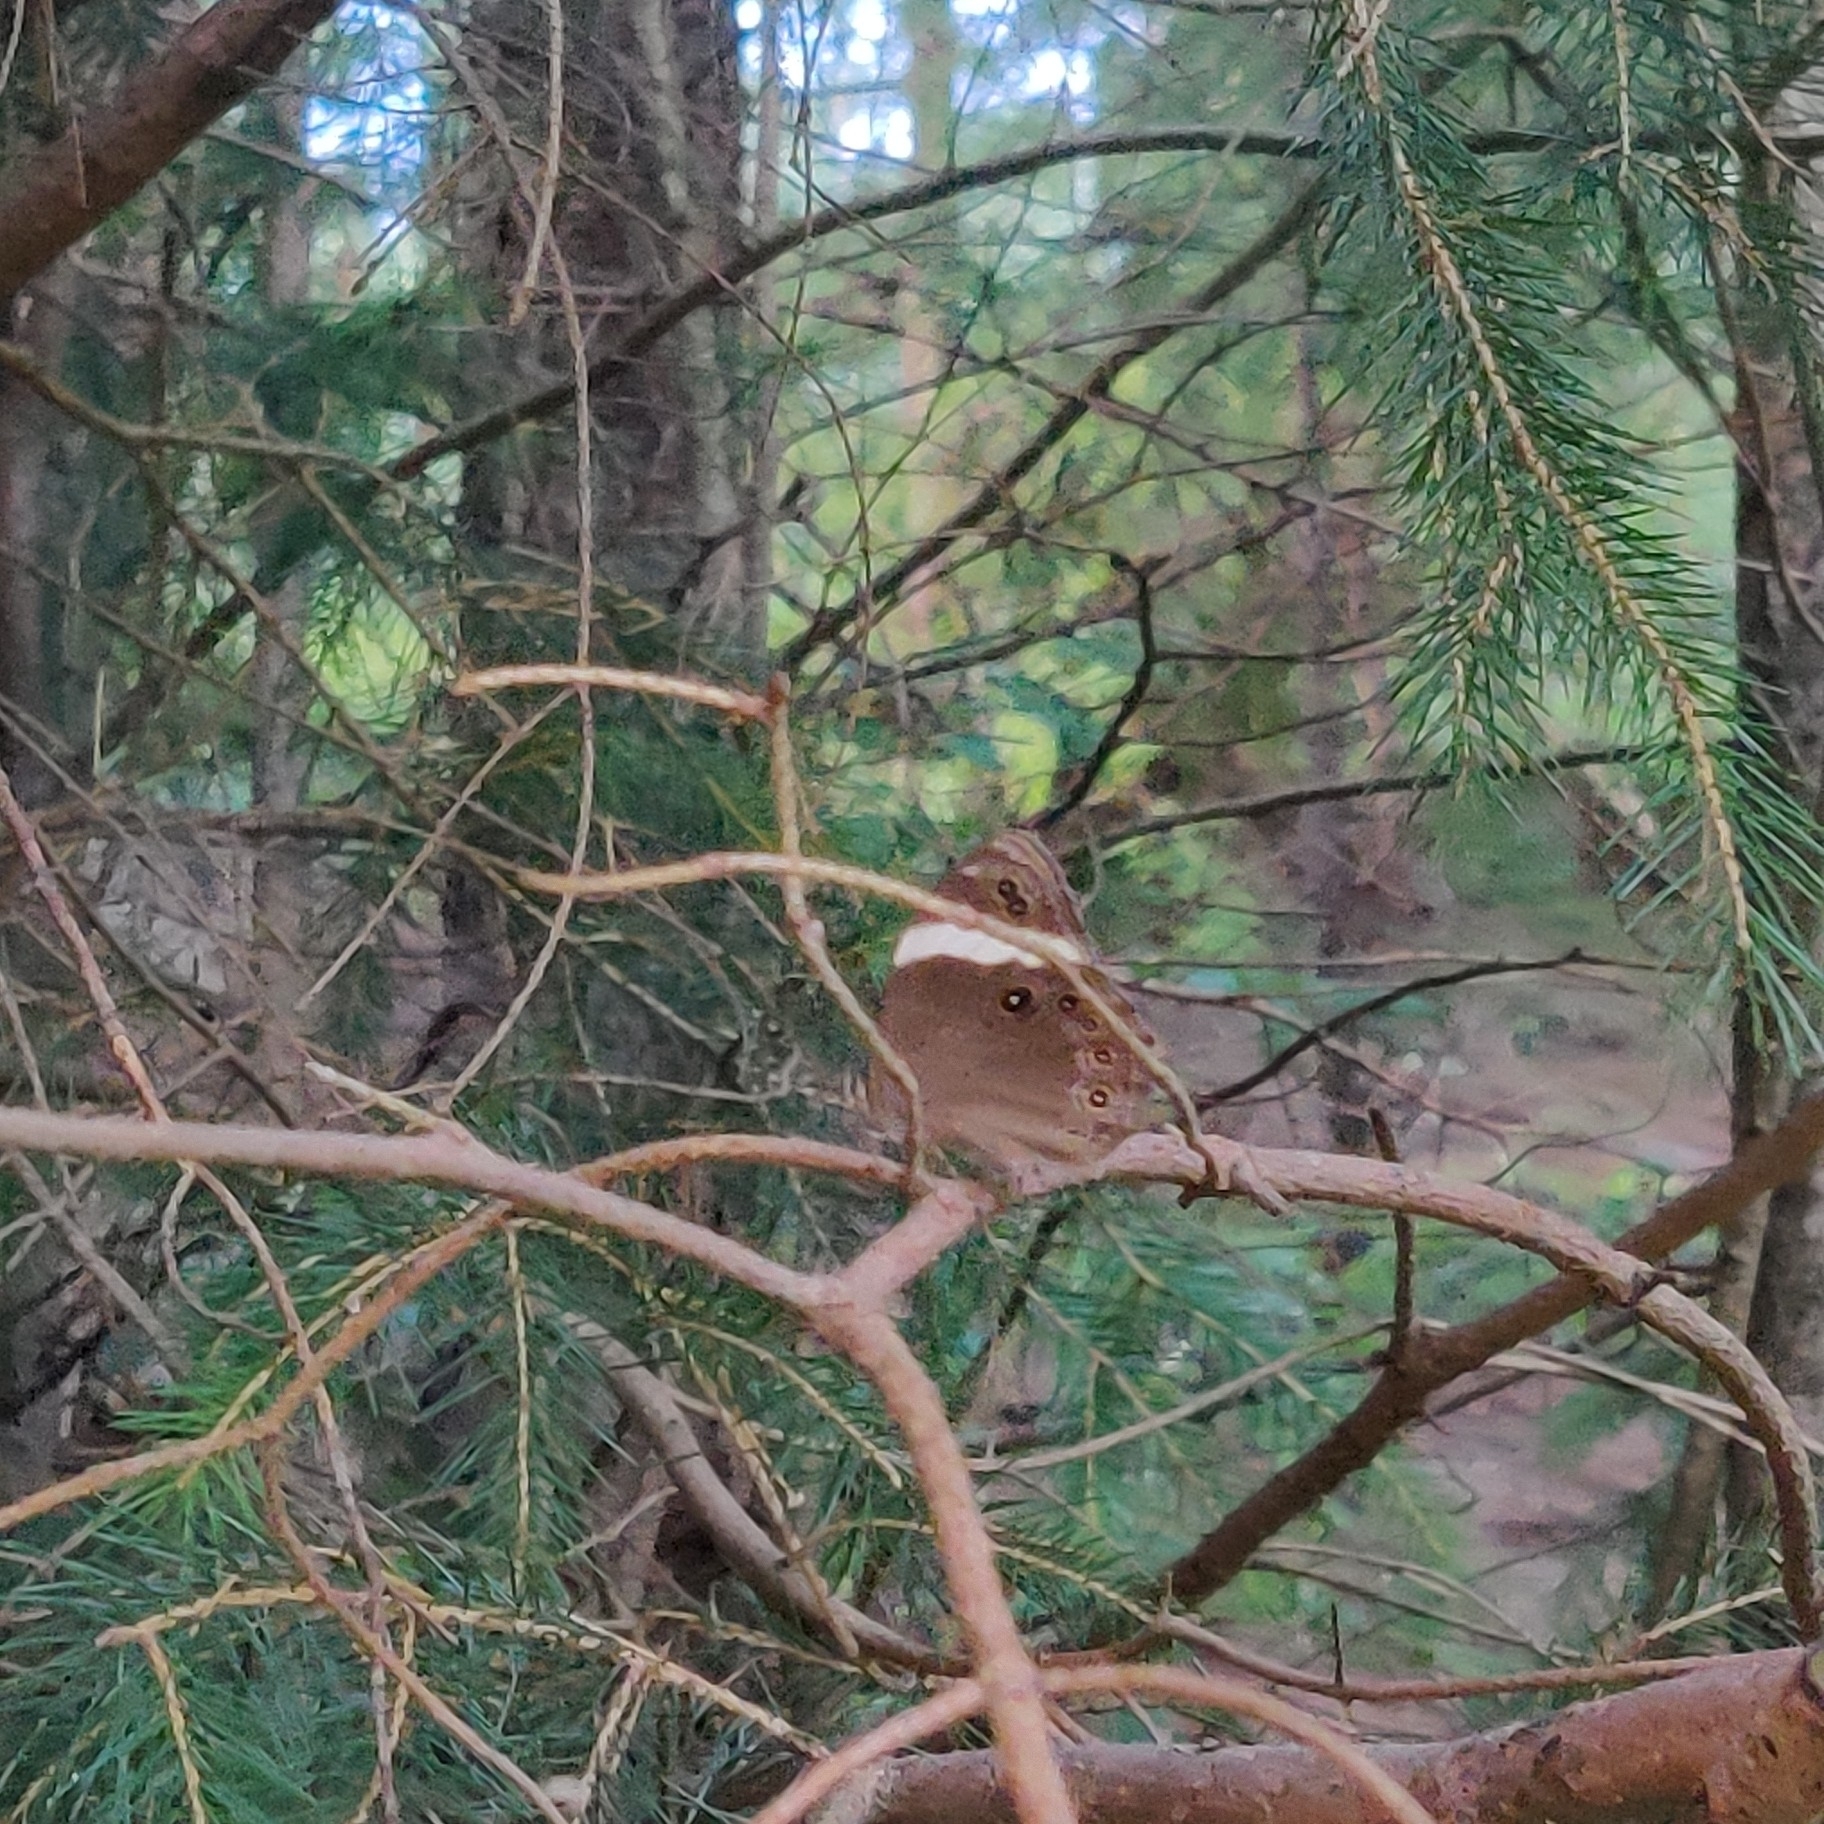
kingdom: Animalia
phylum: Arthropoda
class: Insecta
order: Lepidoptera
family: Nymphalidae
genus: Lethe
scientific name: Lethe verma
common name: Straight-banded treebrown
